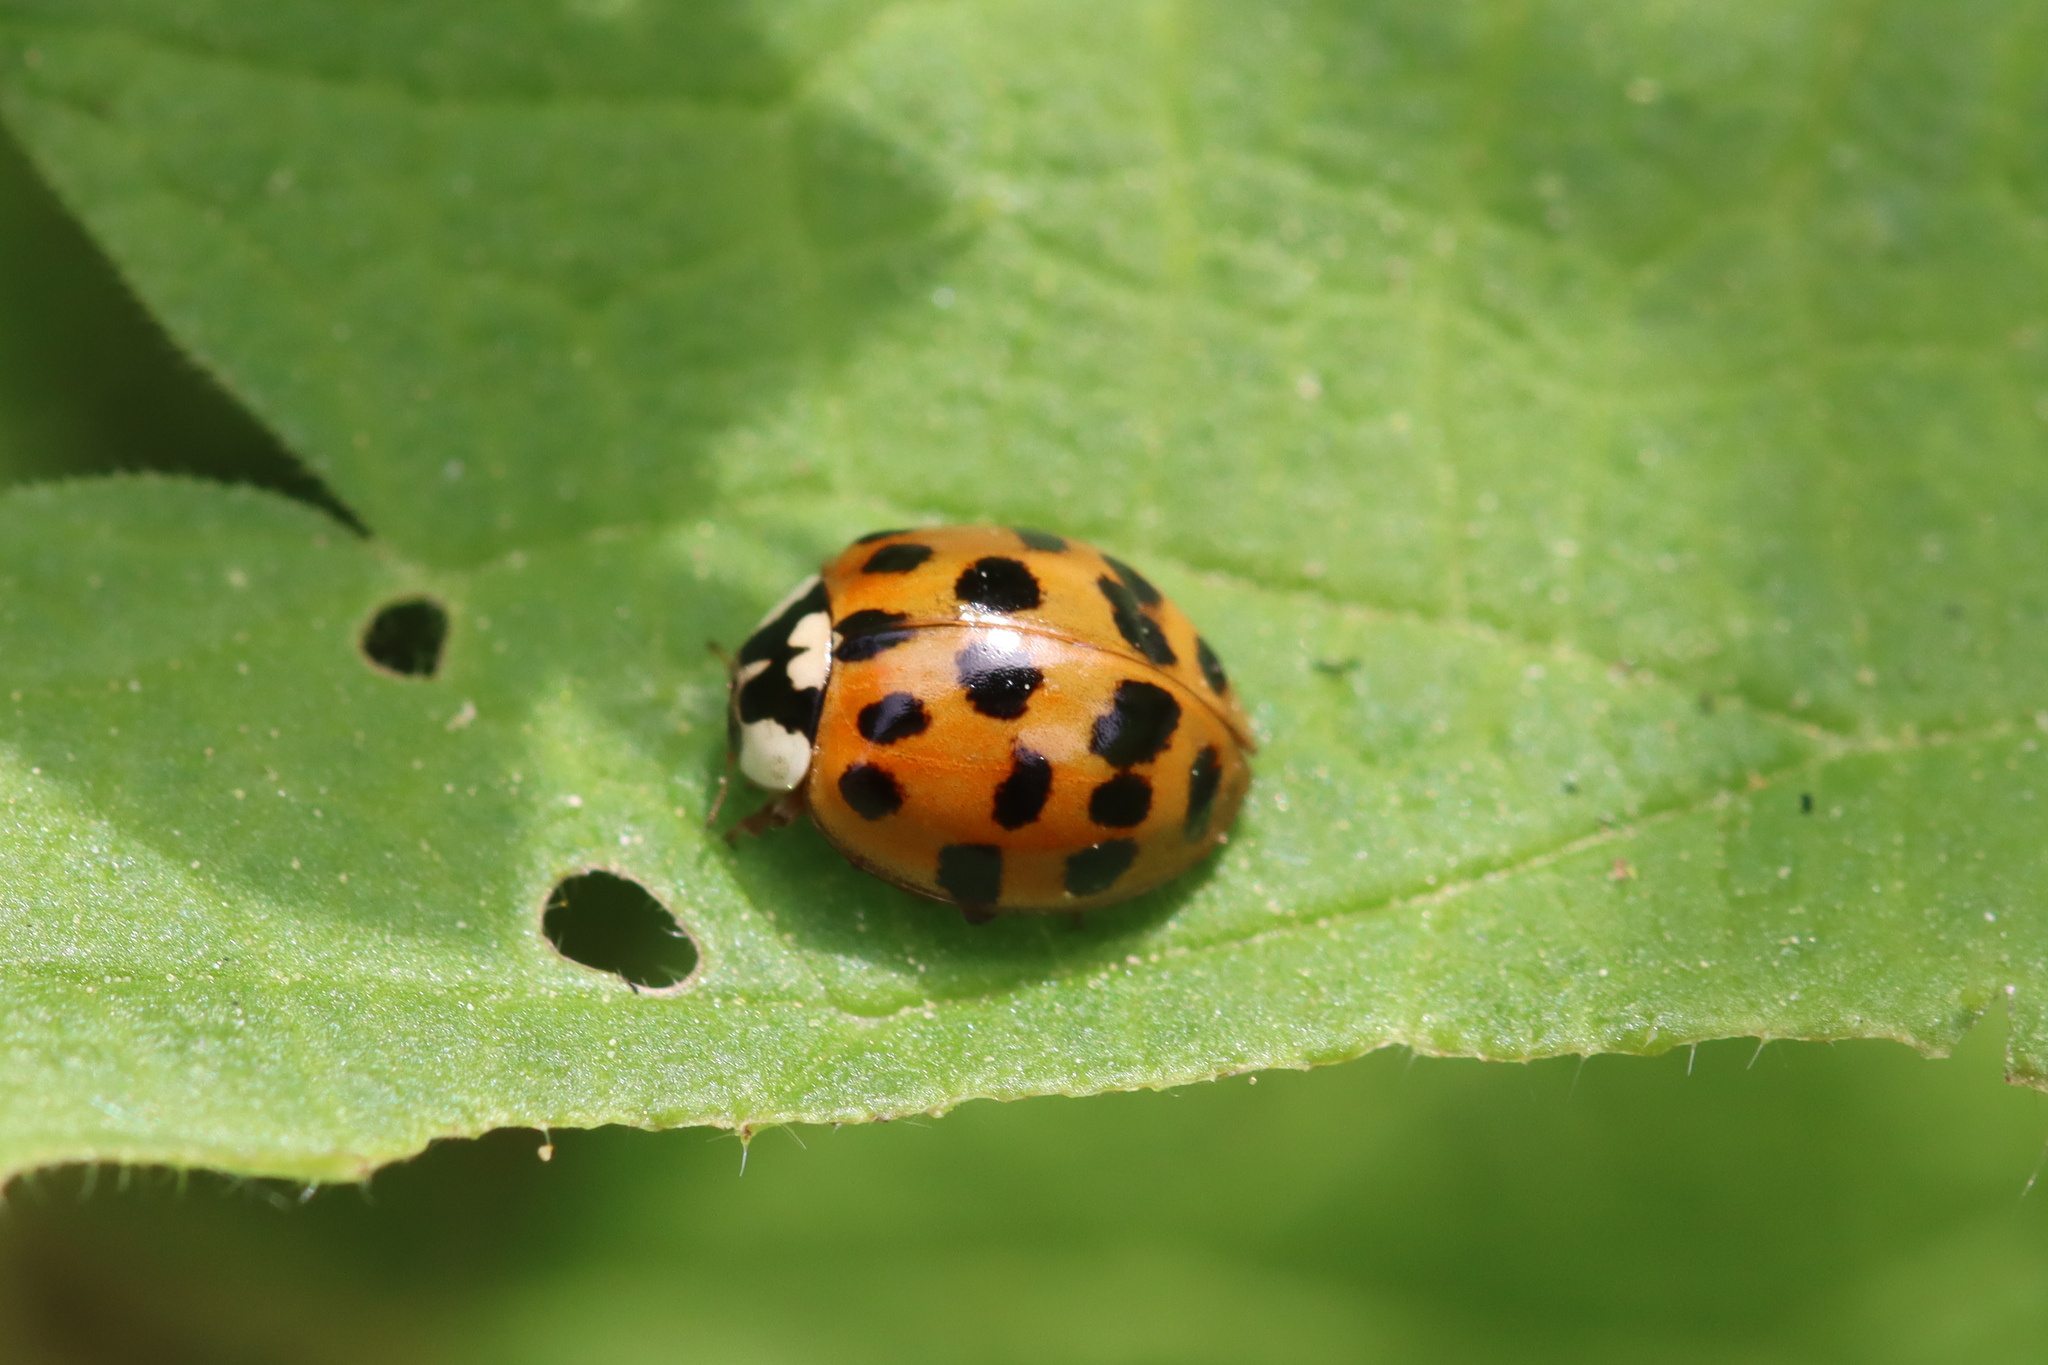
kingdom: Animalia
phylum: Arthropoda
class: Insecta
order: Coleoptera
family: Coccinellidae
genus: Harmonia
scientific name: Harmonia axyridis
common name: Harlequin ladybird
